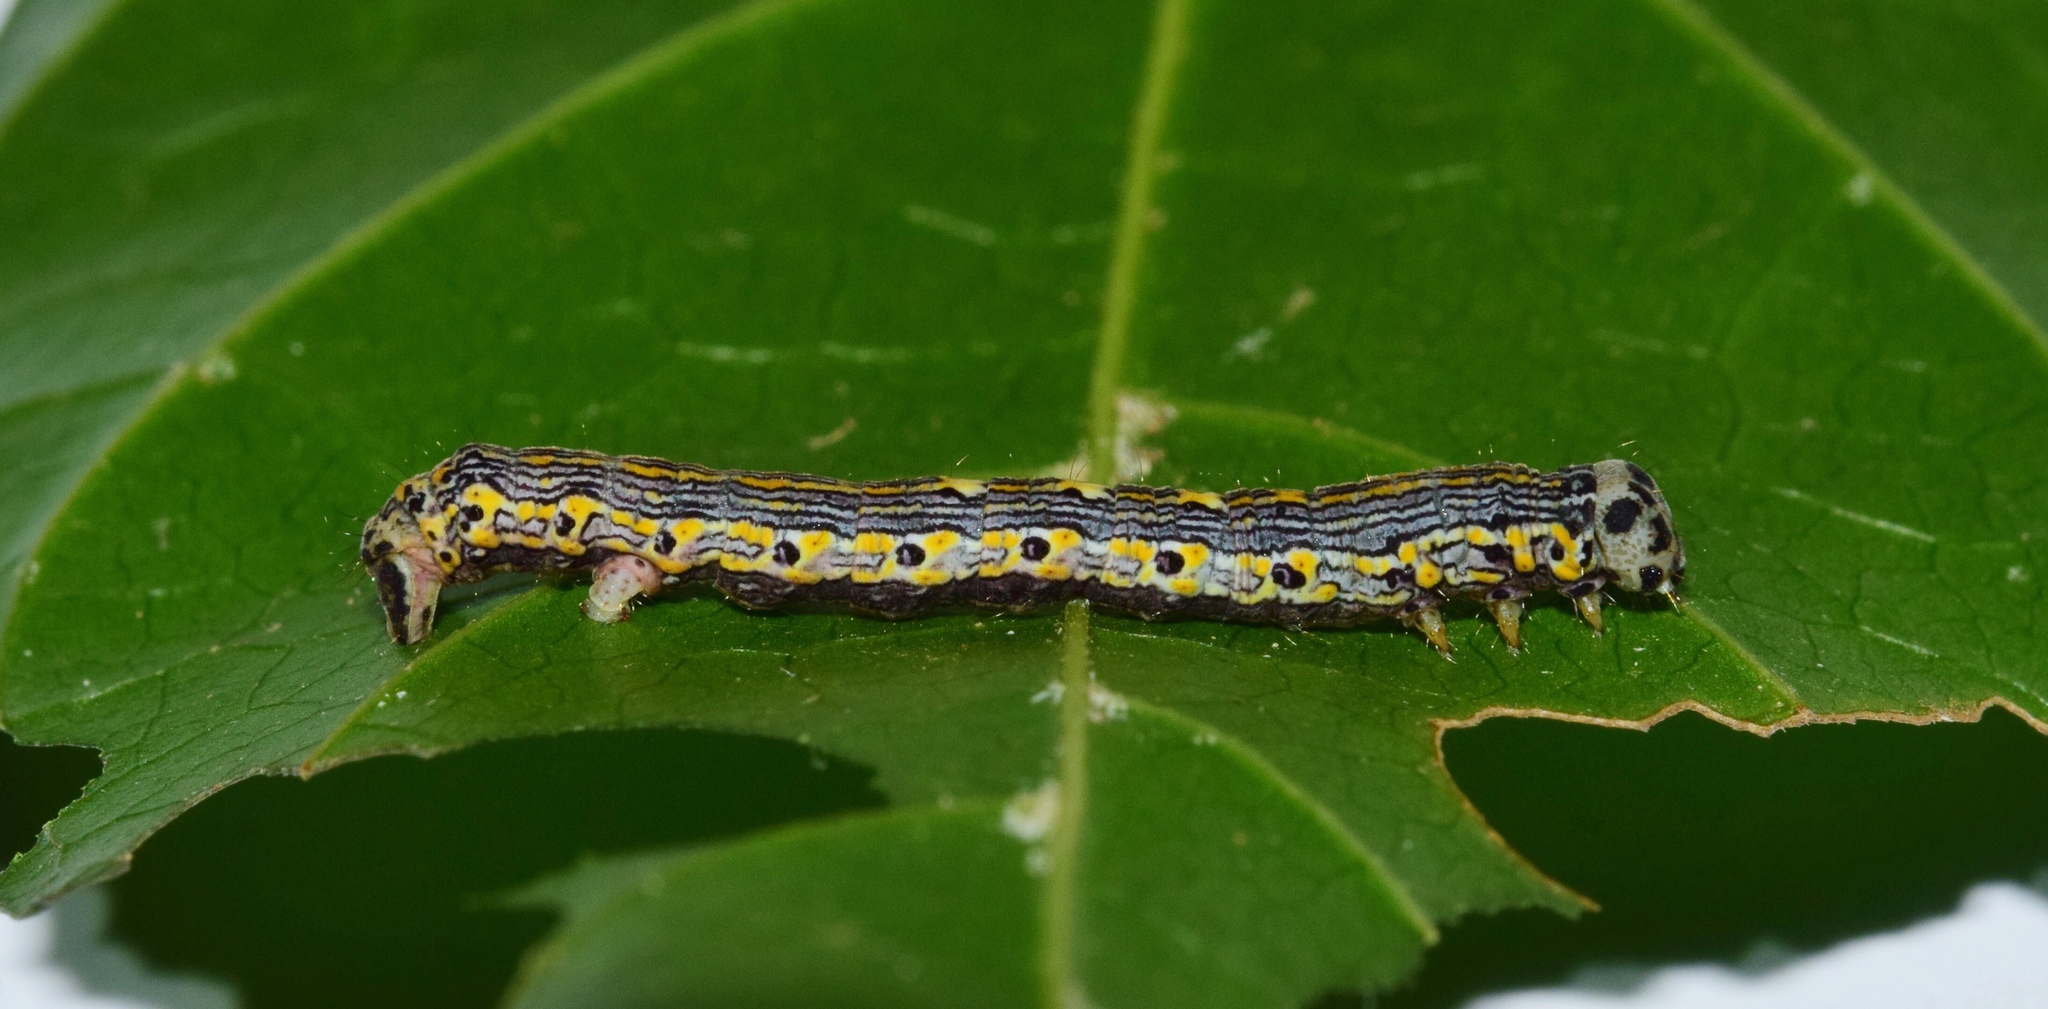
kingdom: Animalia
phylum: Arthropoda
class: Insecta
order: Lepidoptera
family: Geometridae
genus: Hypochrosis
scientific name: Hypochrosis meridionalis
